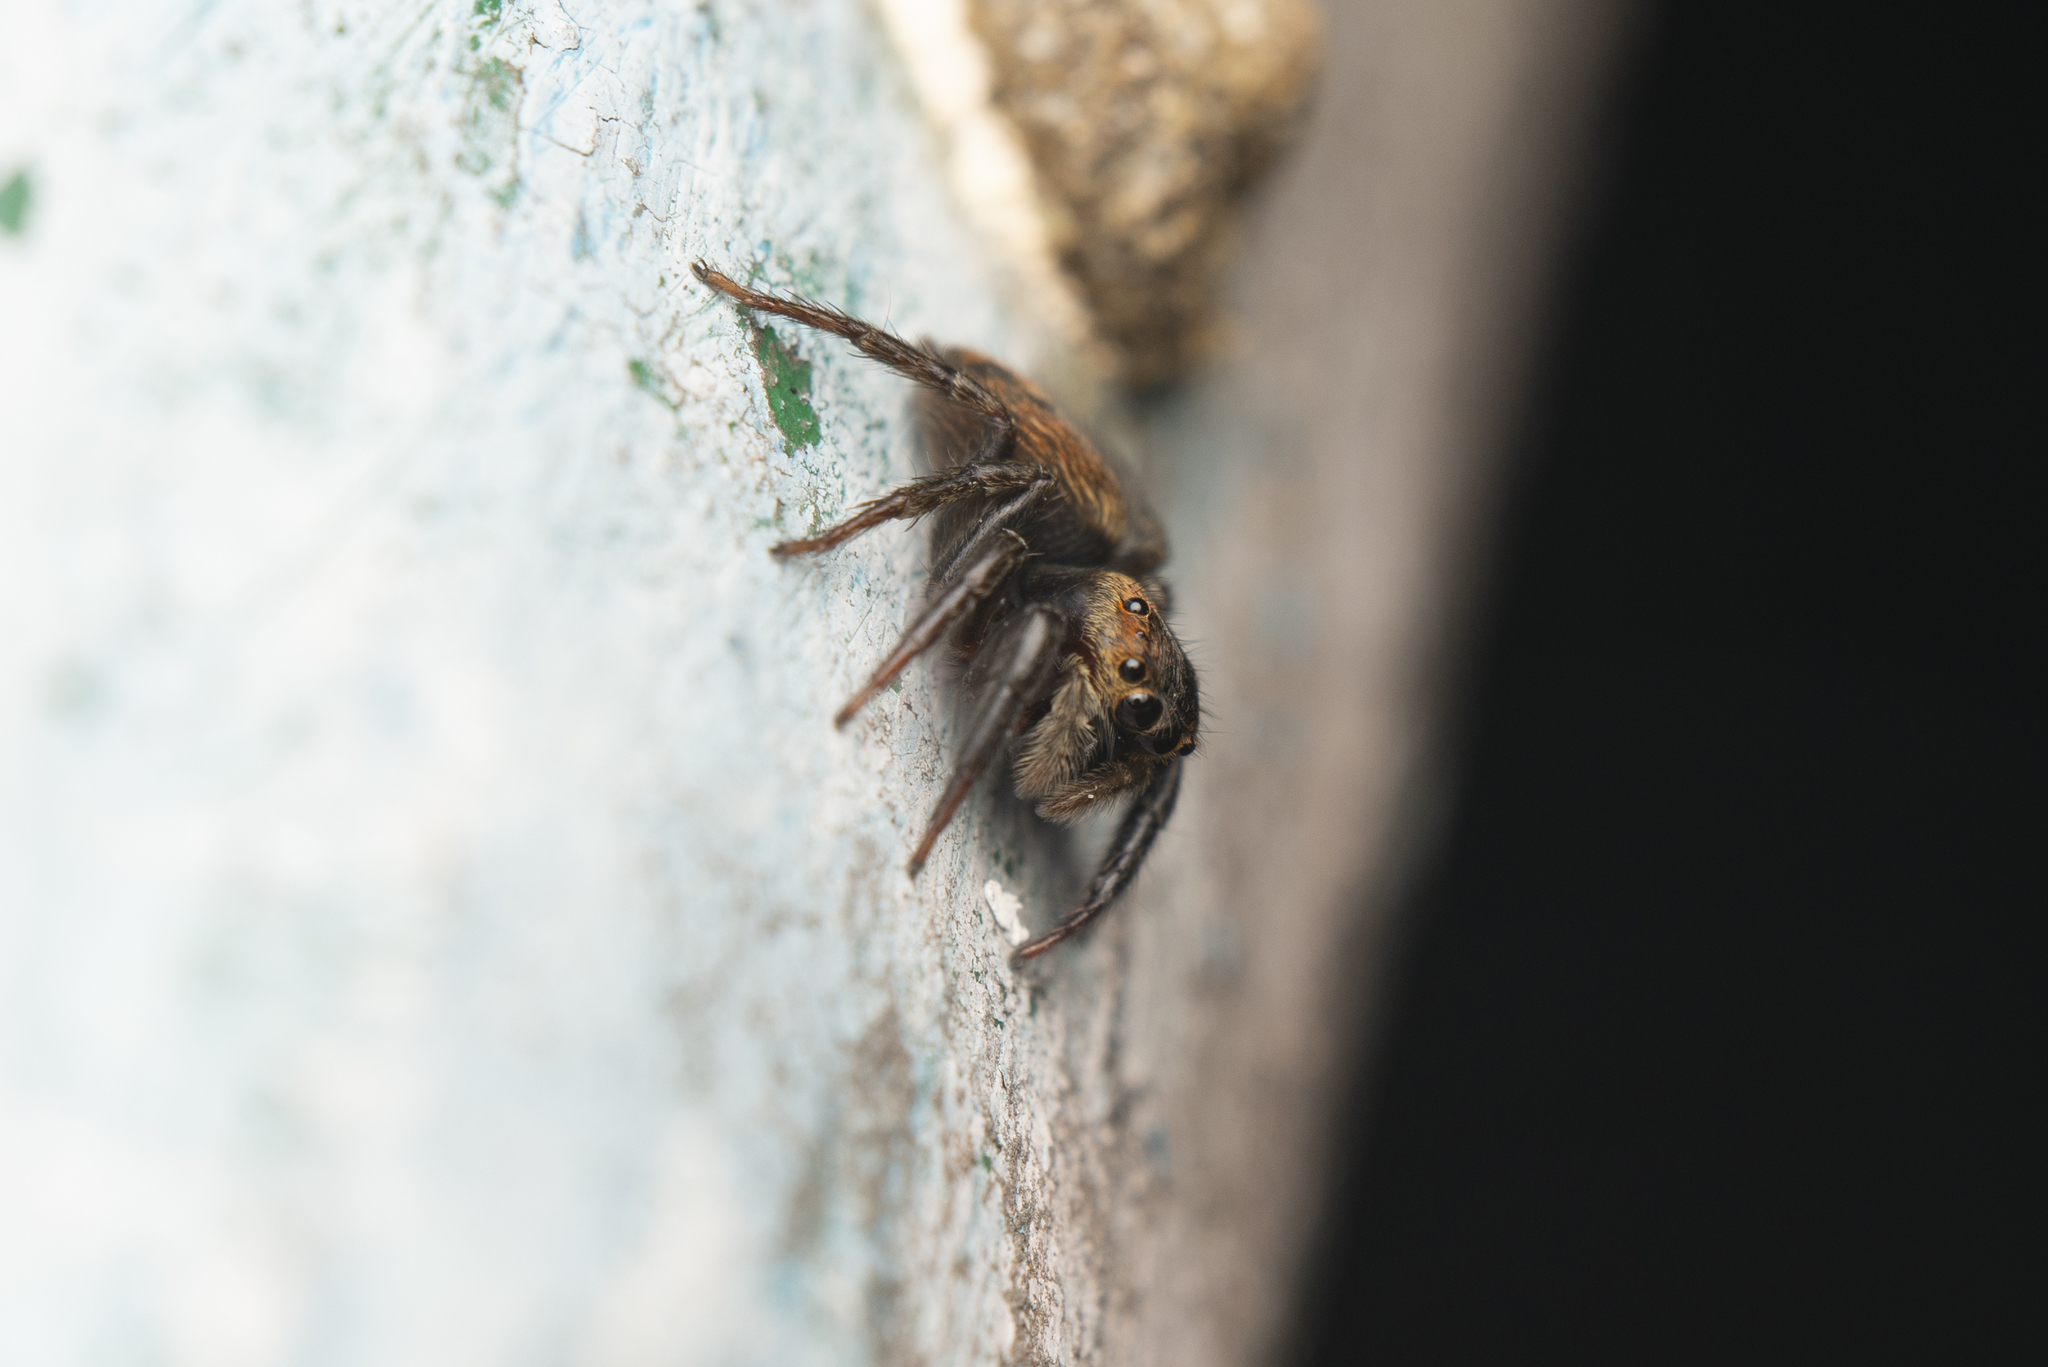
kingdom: Animalia
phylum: Arthropoda
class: Arachnida
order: Araneae
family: Salticidae
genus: Hasarius
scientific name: Hasarius adansoni
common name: Jumping spider
